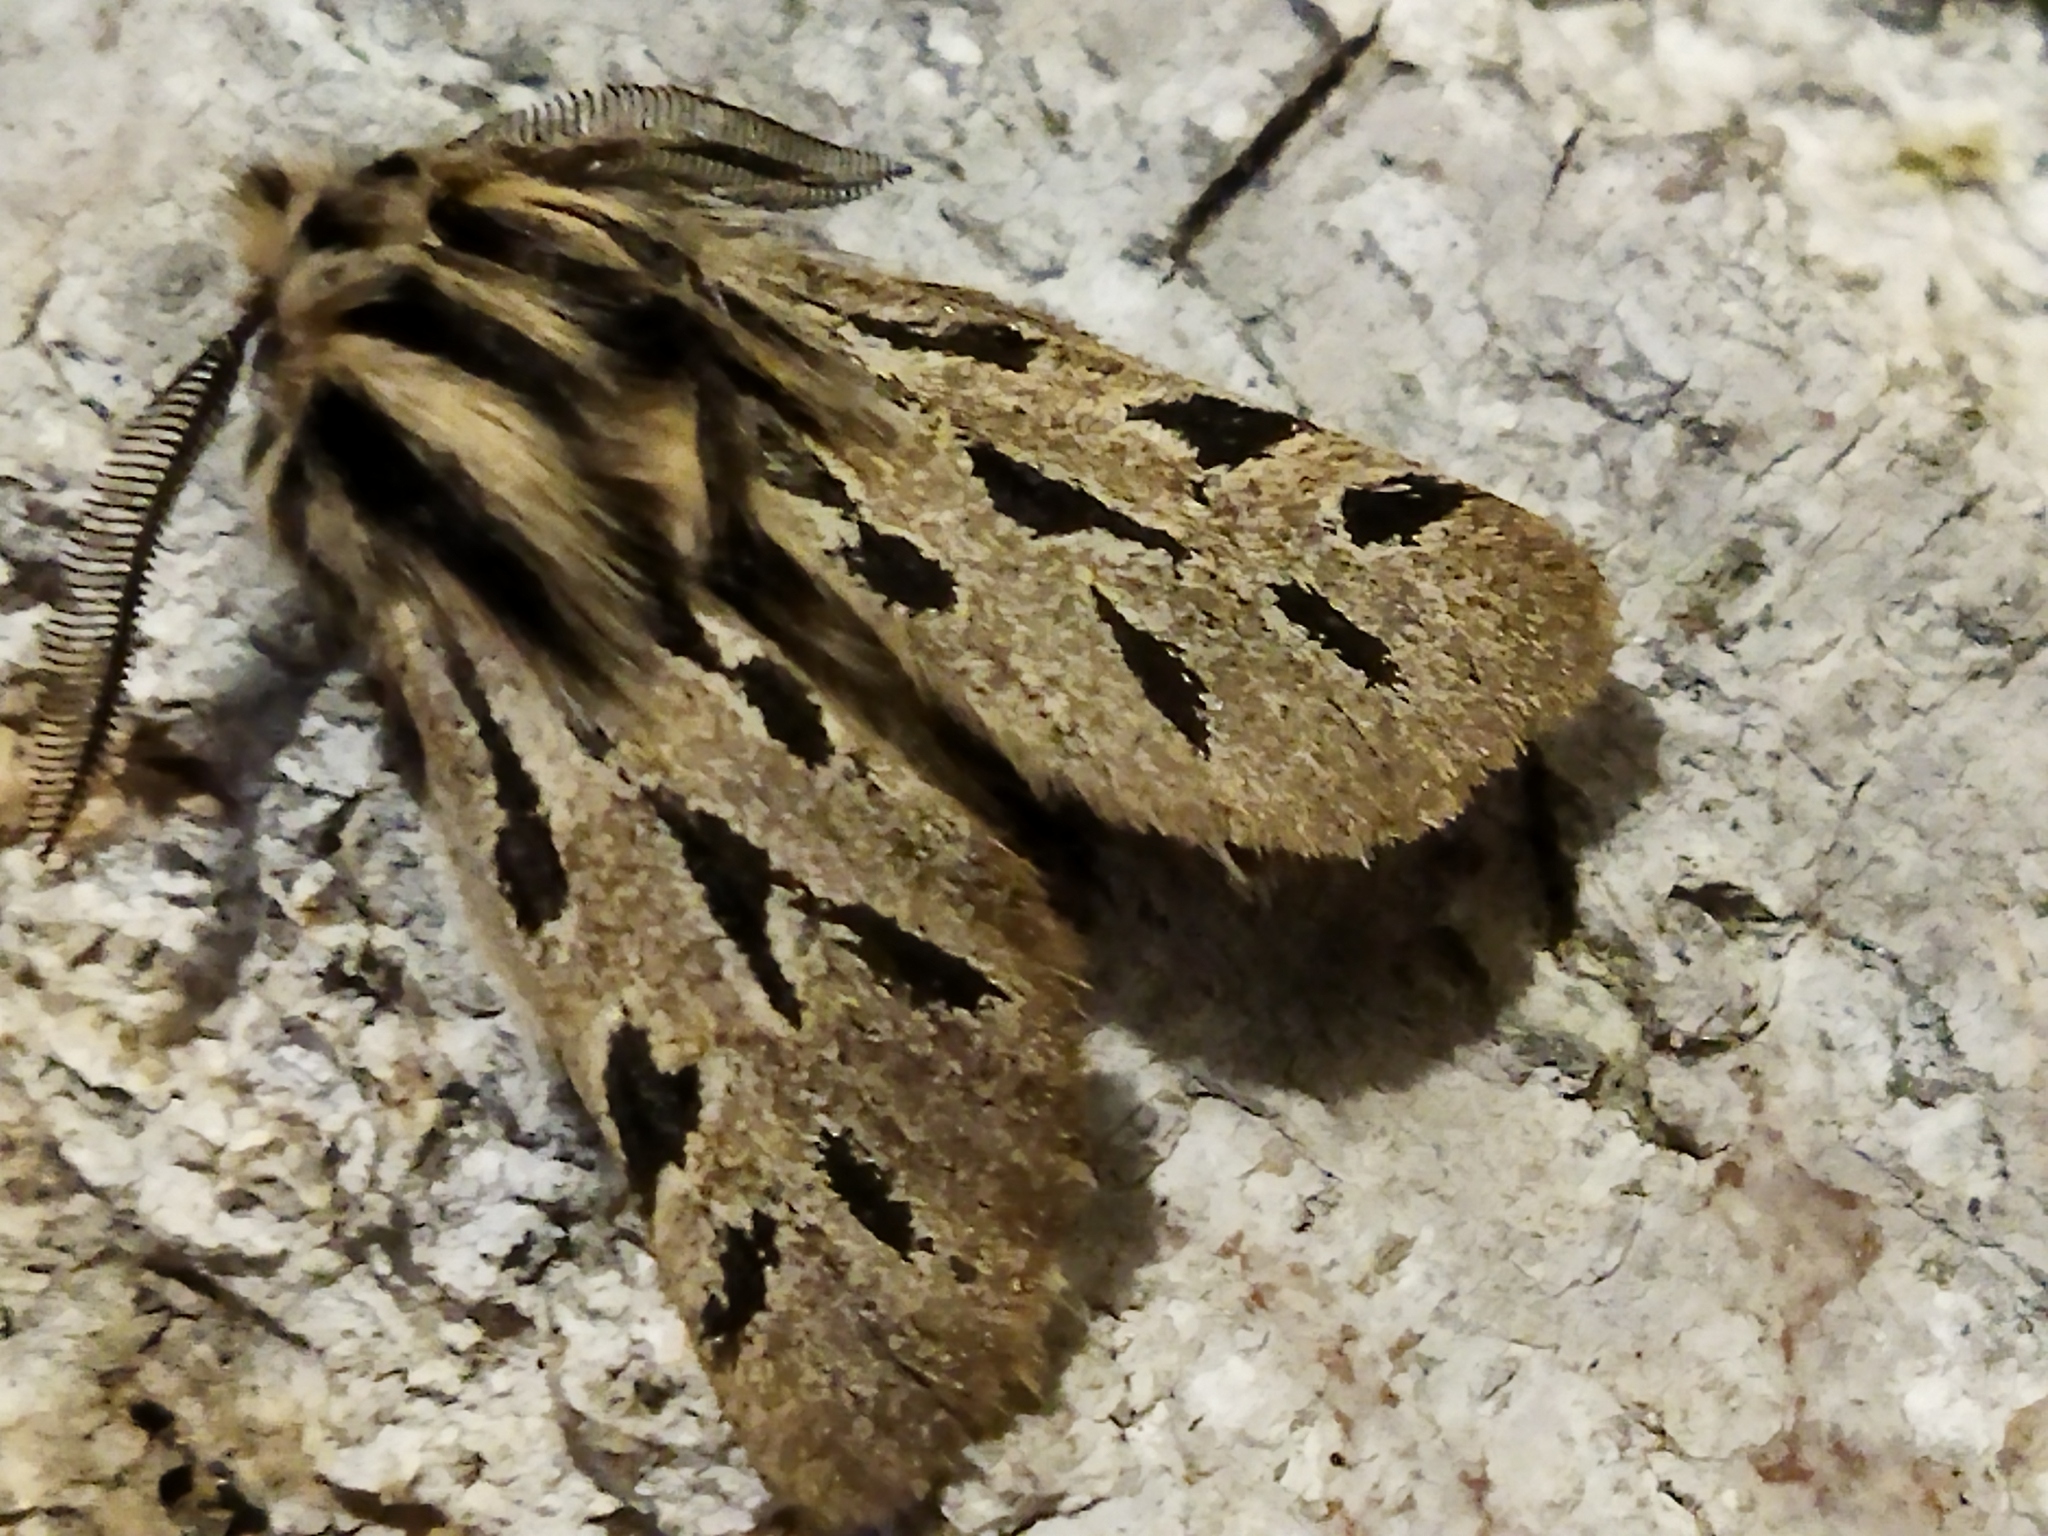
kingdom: Animalia
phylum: Arthropoda
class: Insecta
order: Lepidoptera
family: Erebidae
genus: Ocnogyna
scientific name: Ocnogyna parasita
